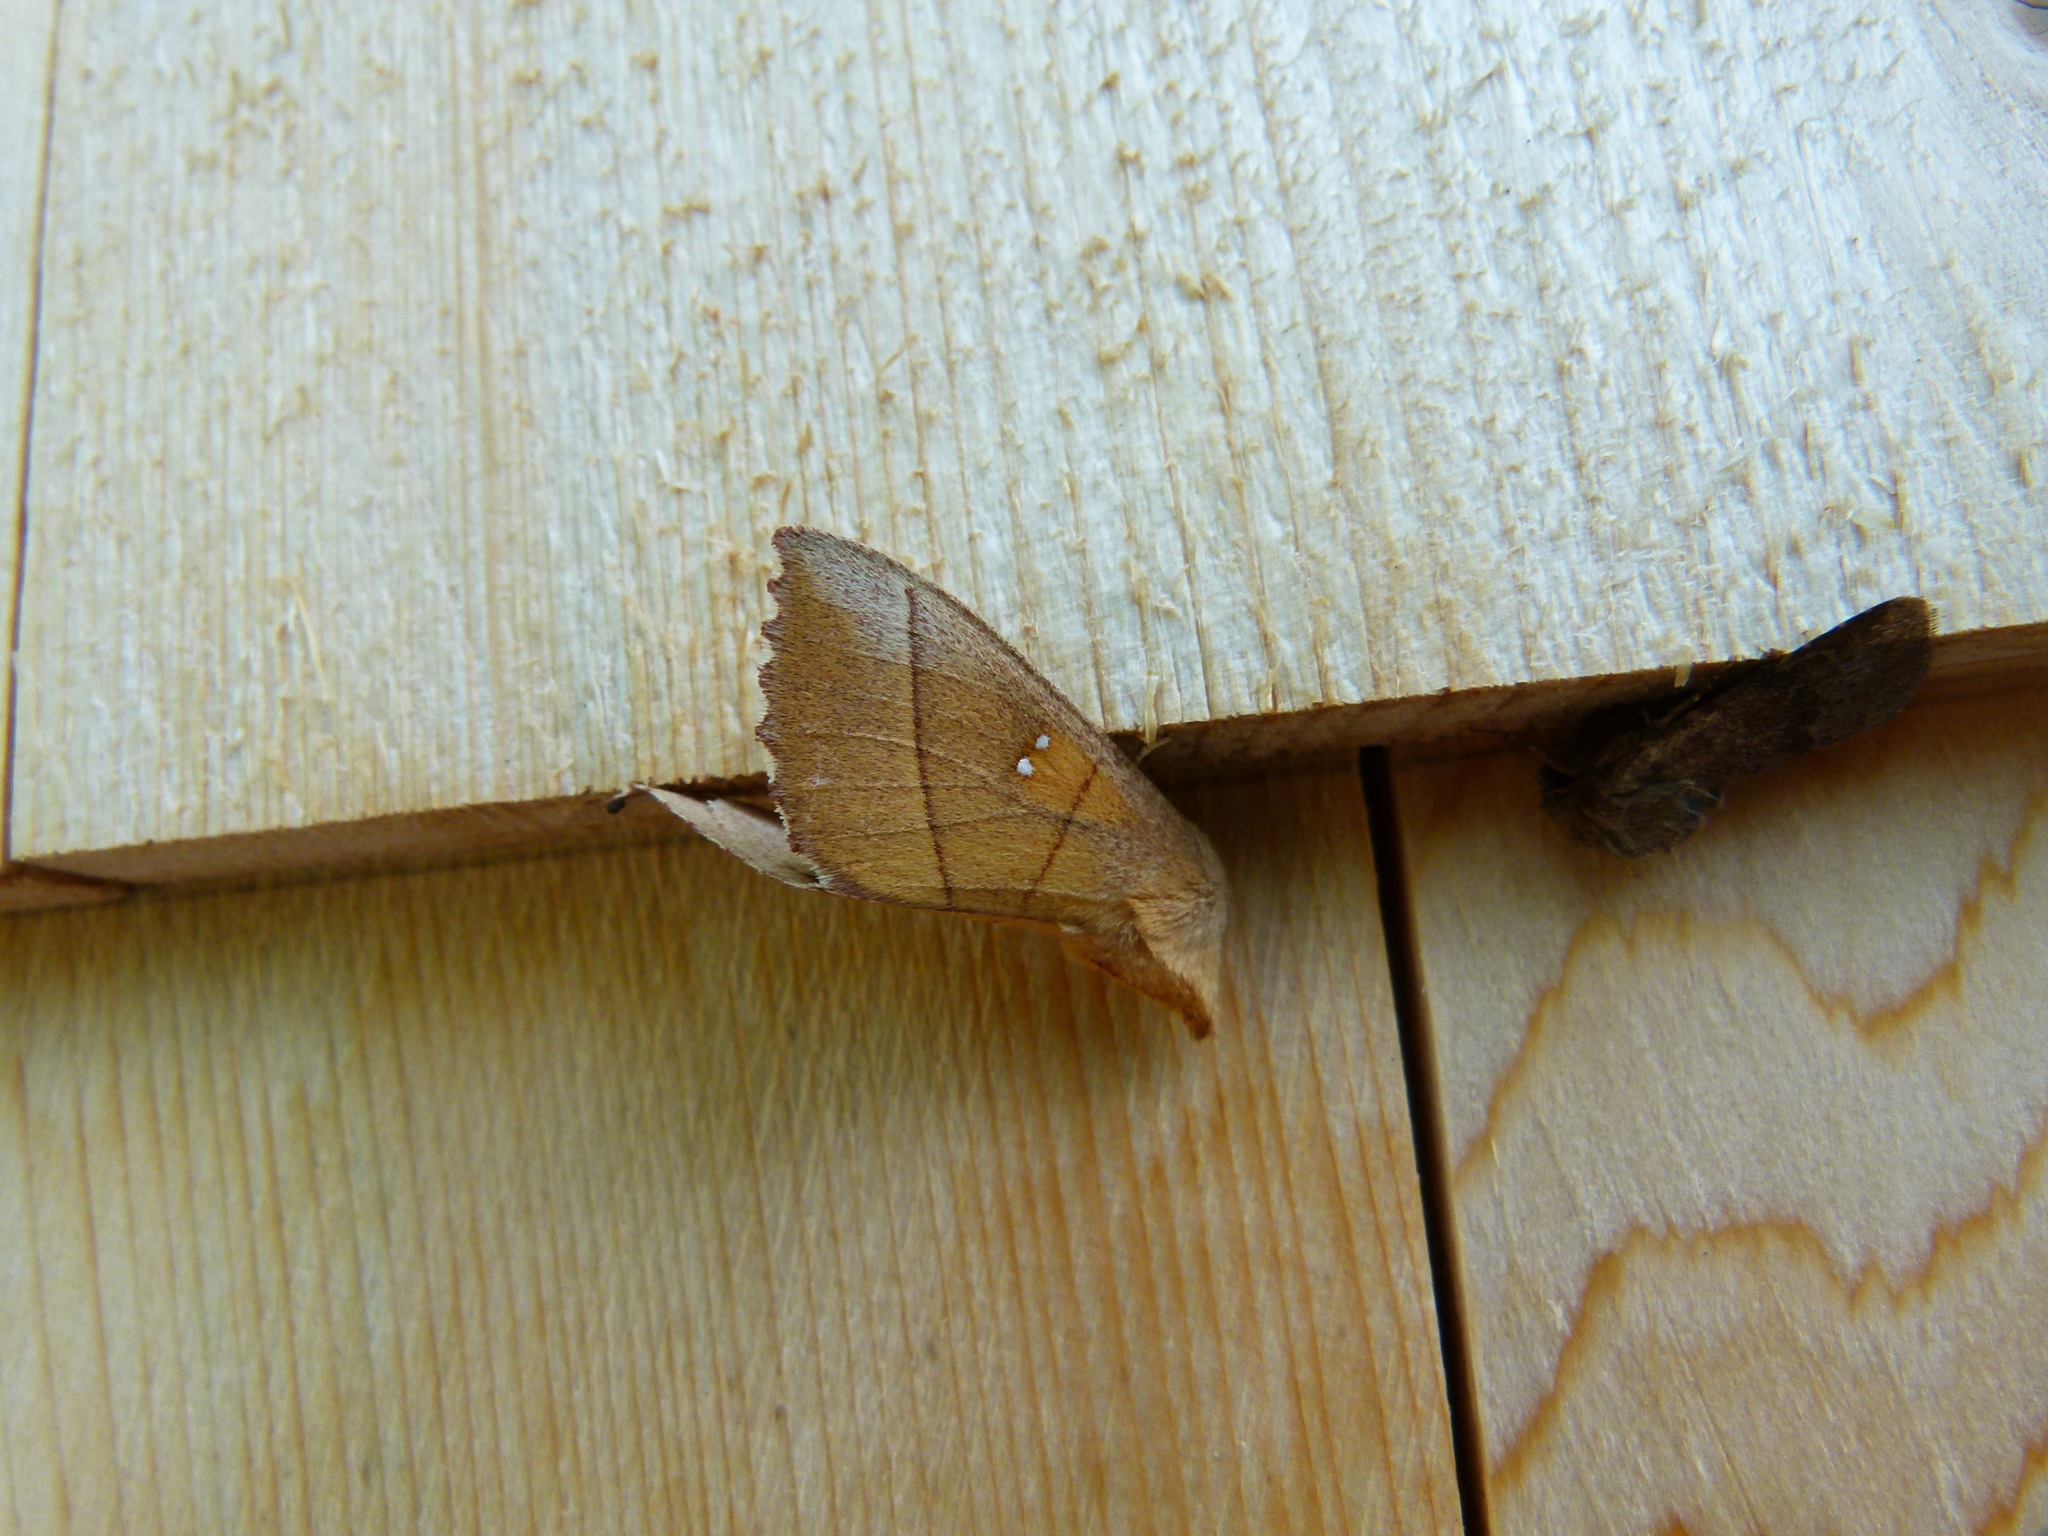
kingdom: Animalia
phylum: Arthropoda
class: Insecta
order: Lepidoptera
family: Notodontidae
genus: Nadata
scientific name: Nadata gibbosa
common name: White-dotted prominent
